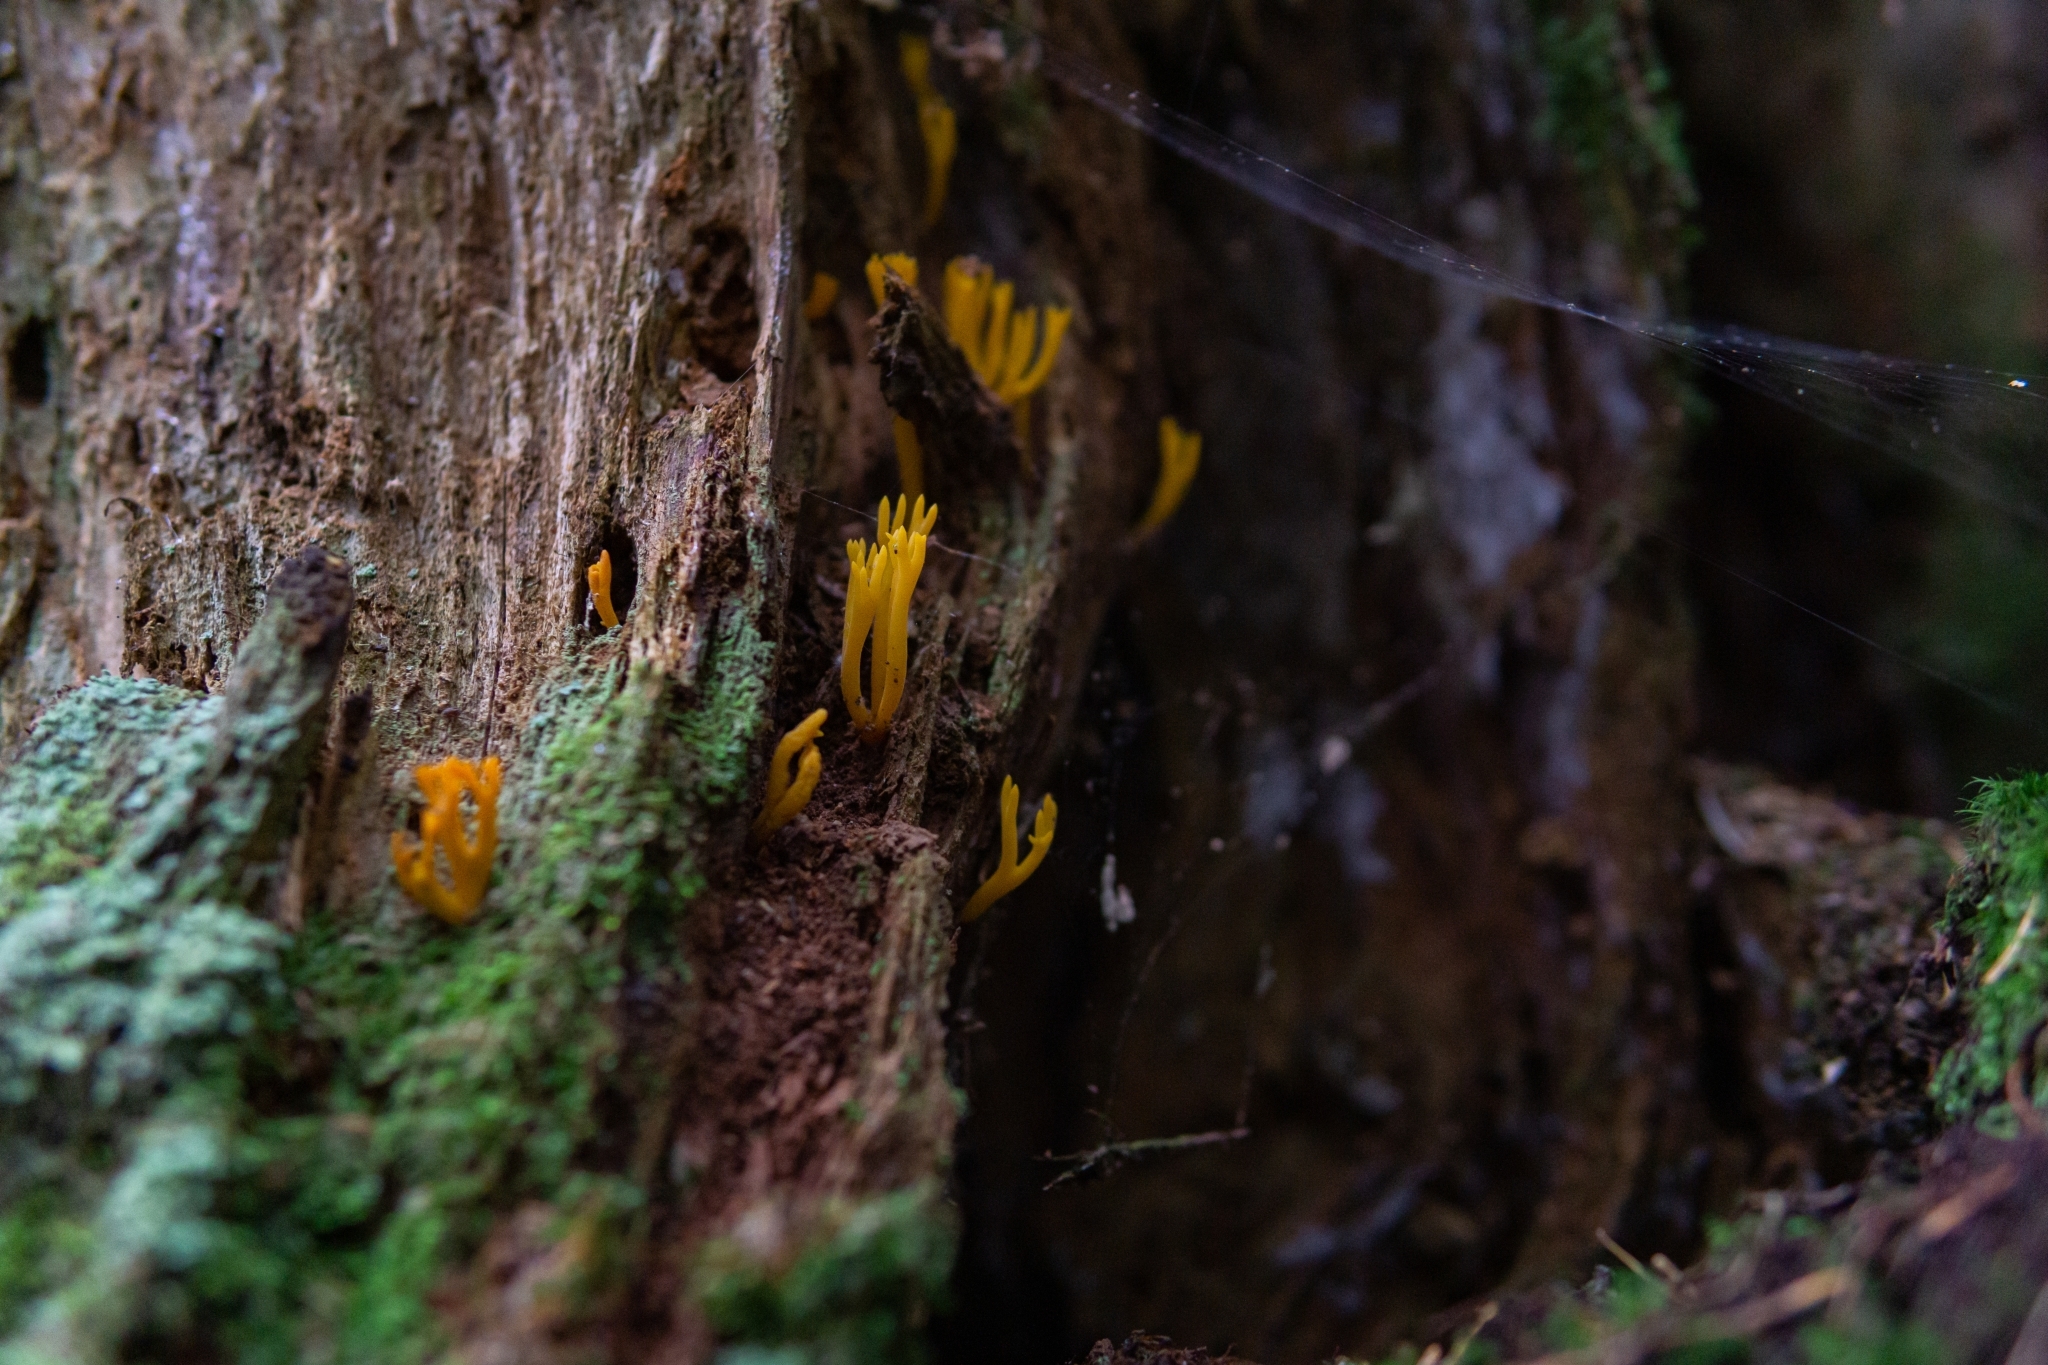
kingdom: Fungi
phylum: Basidiomycota
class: Dacrymycetes
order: Dacrymycetales
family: Dacrymycetaceae
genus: Calocera
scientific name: Calocera viscosa
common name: Yellow stagshorn
